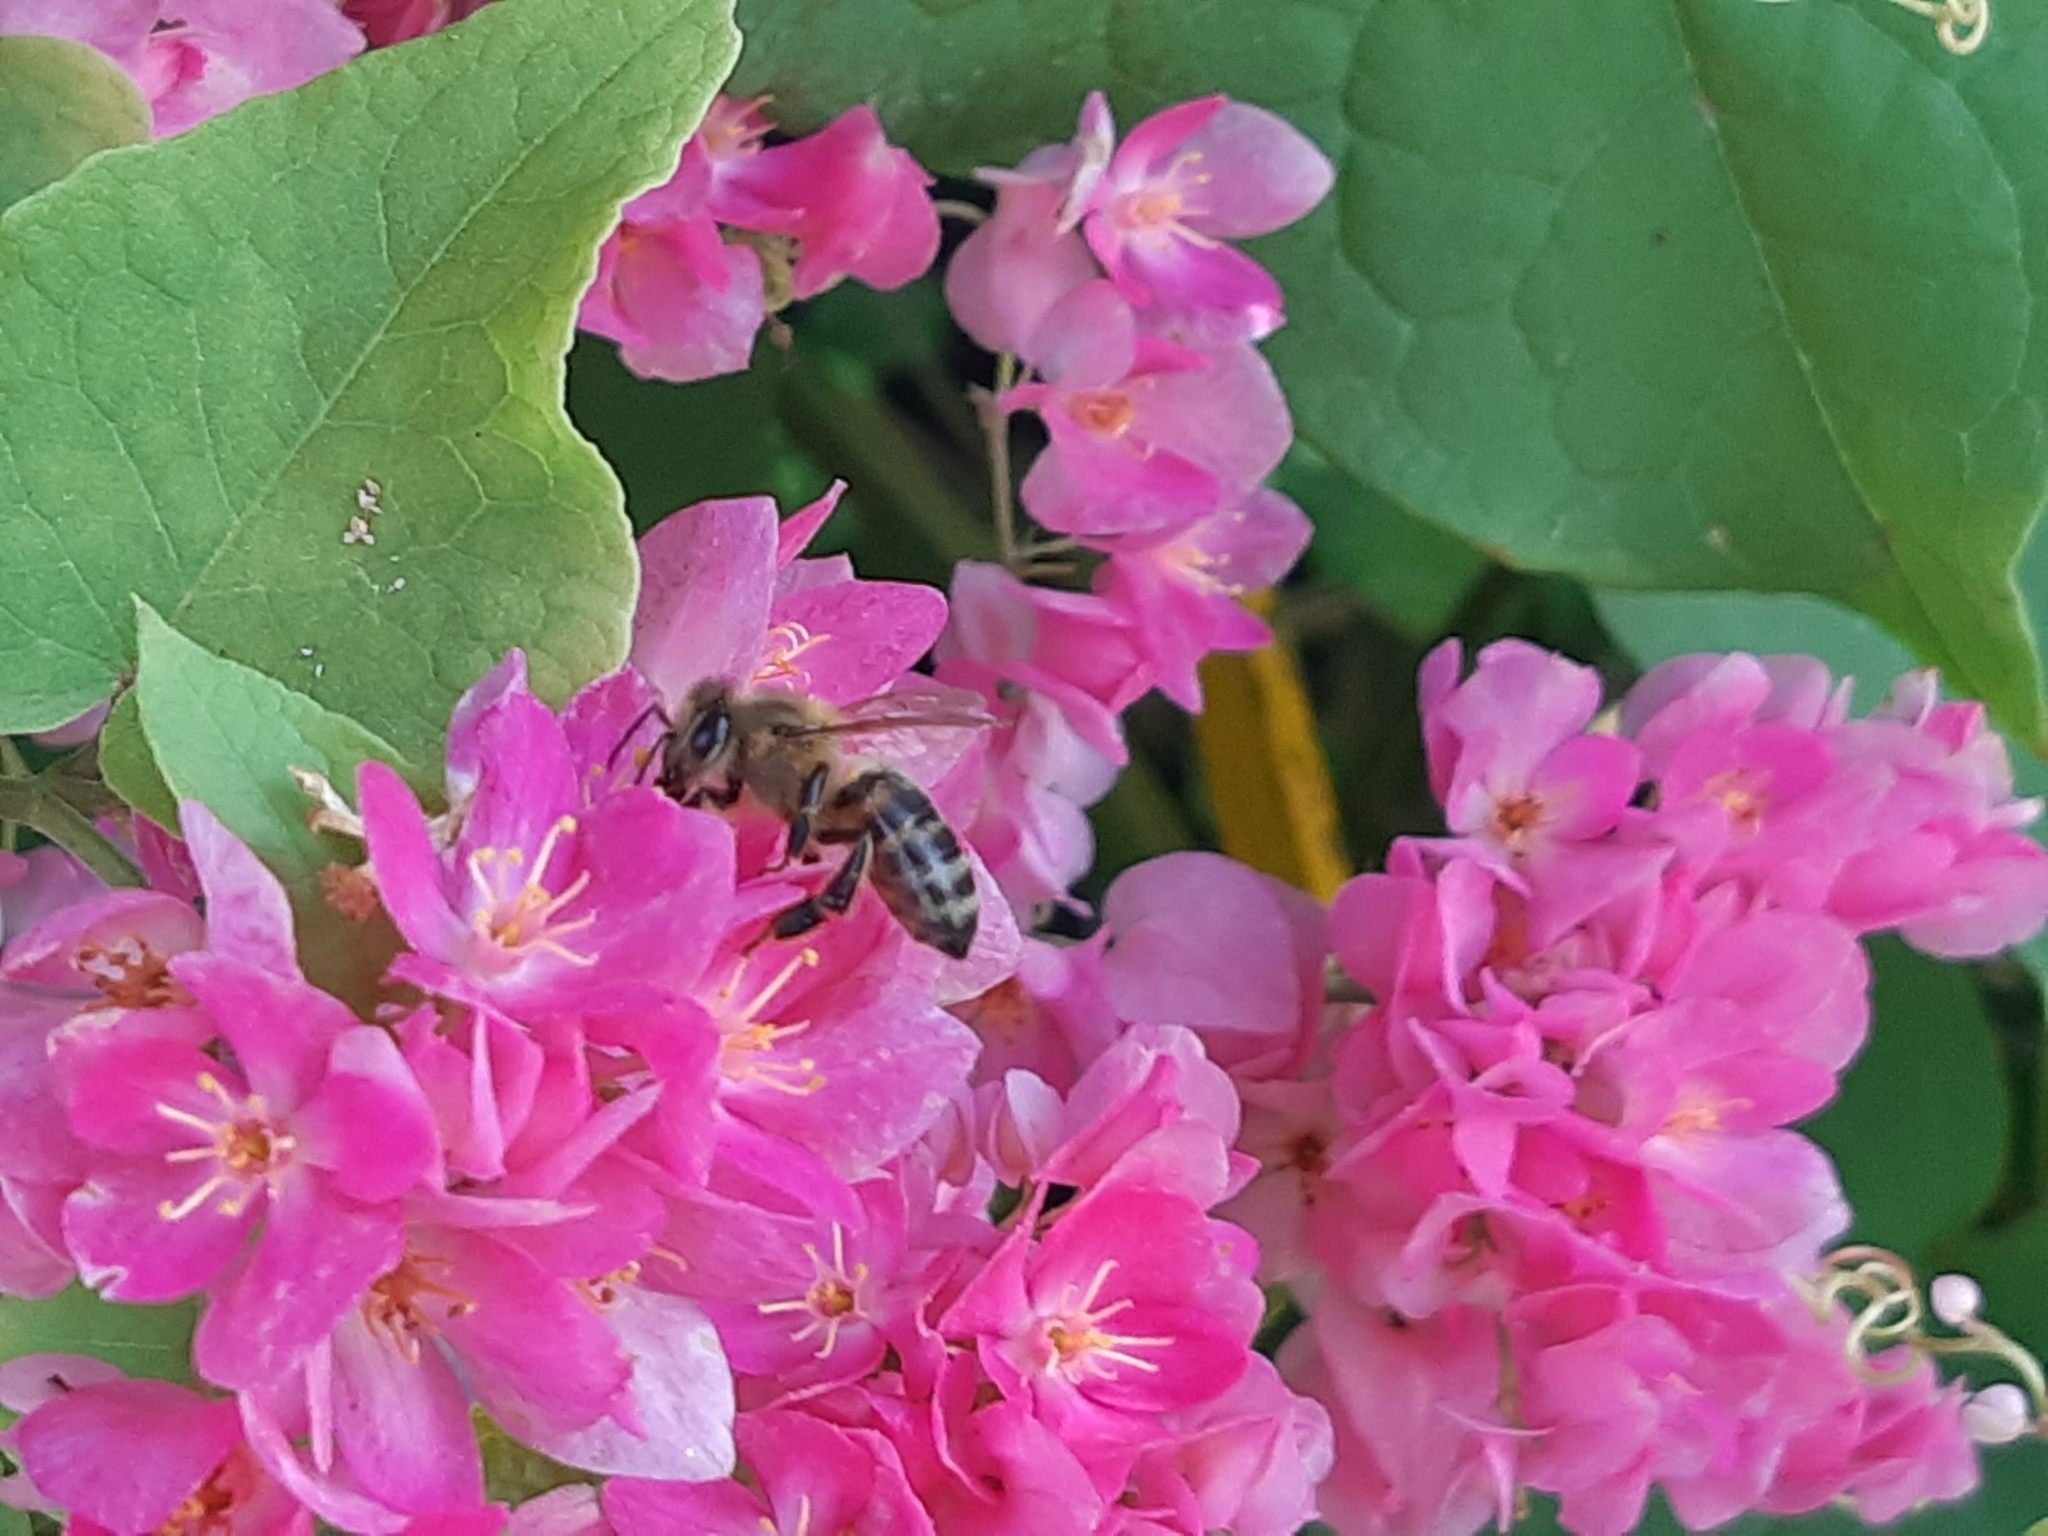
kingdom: Animalia
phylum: Arthropoda
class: Insecta
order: Hymenoptera
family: Apidae
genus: Apis
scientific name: Apis mellifera
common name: Honey bee
